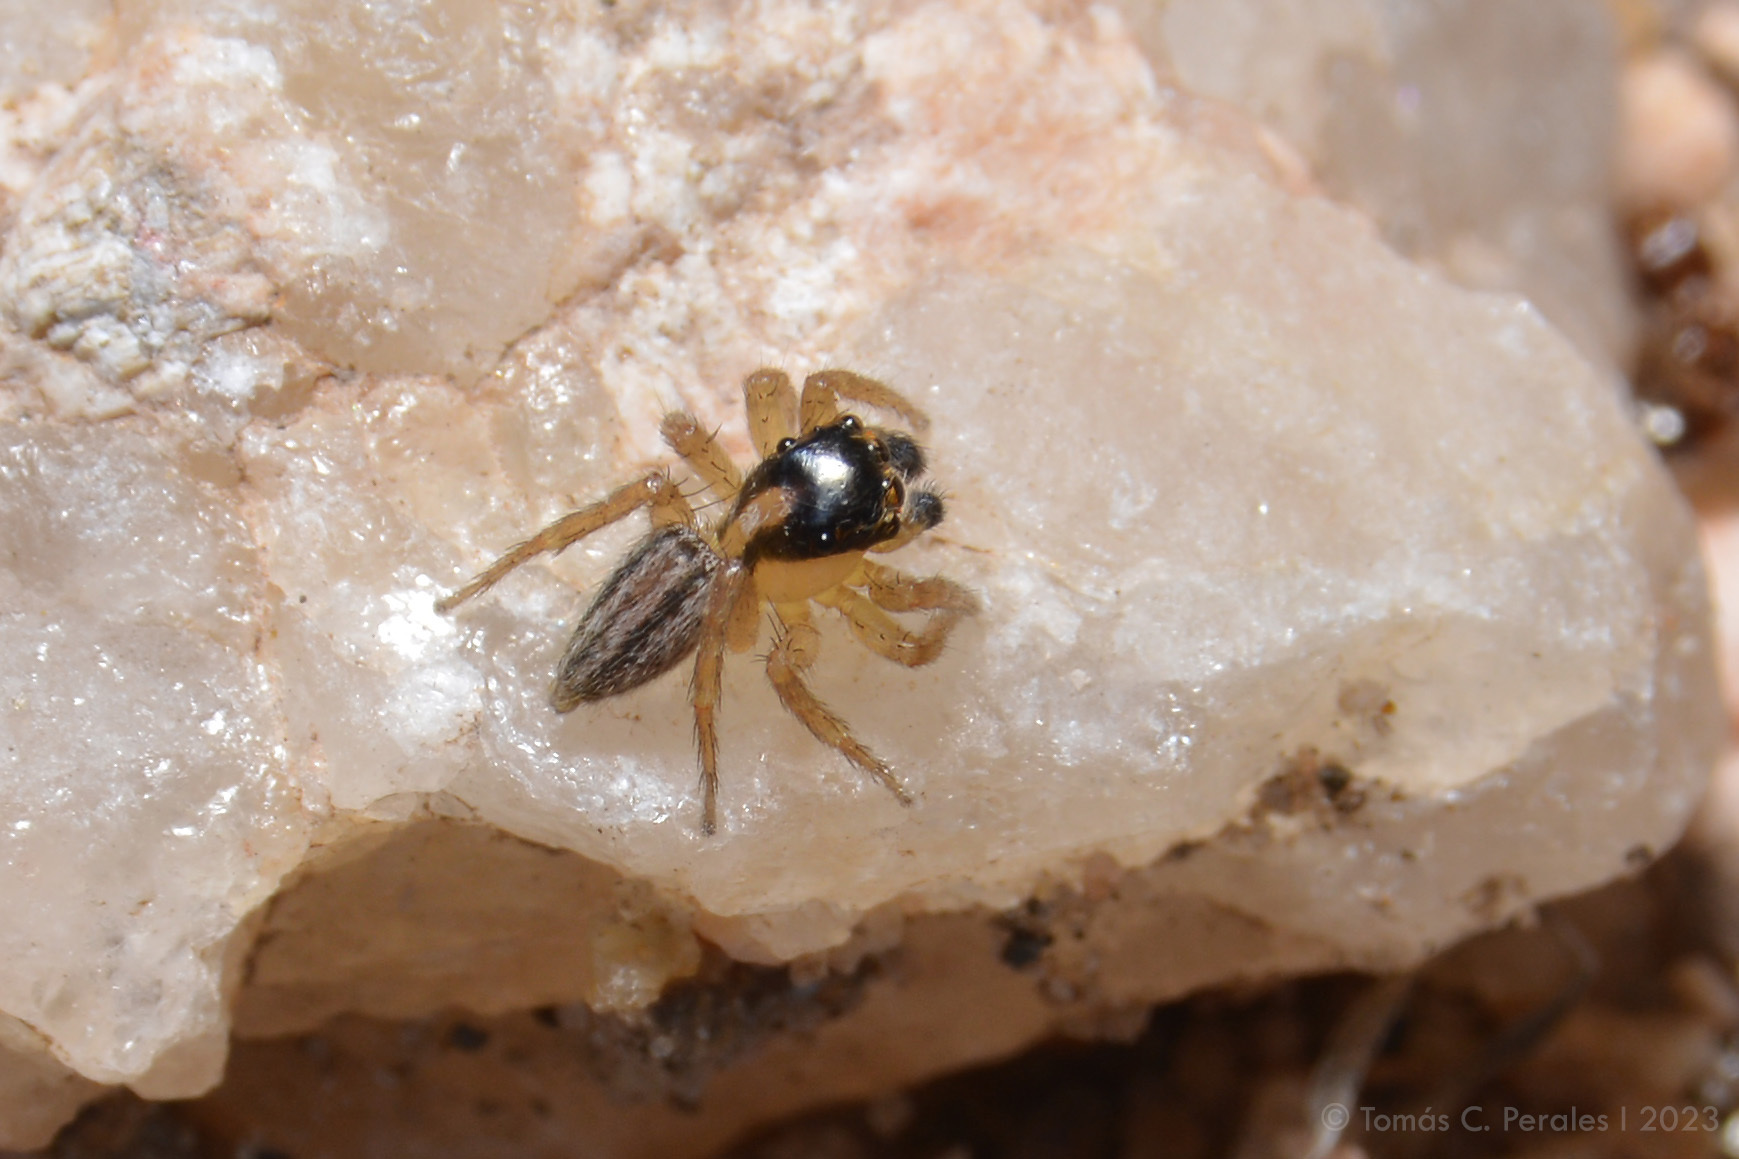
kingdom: Animalia
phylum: Arthropoda
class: Arachnida
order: Araneae
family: Salticidae
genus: Saphrys
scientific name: Saphrys saitiformis
